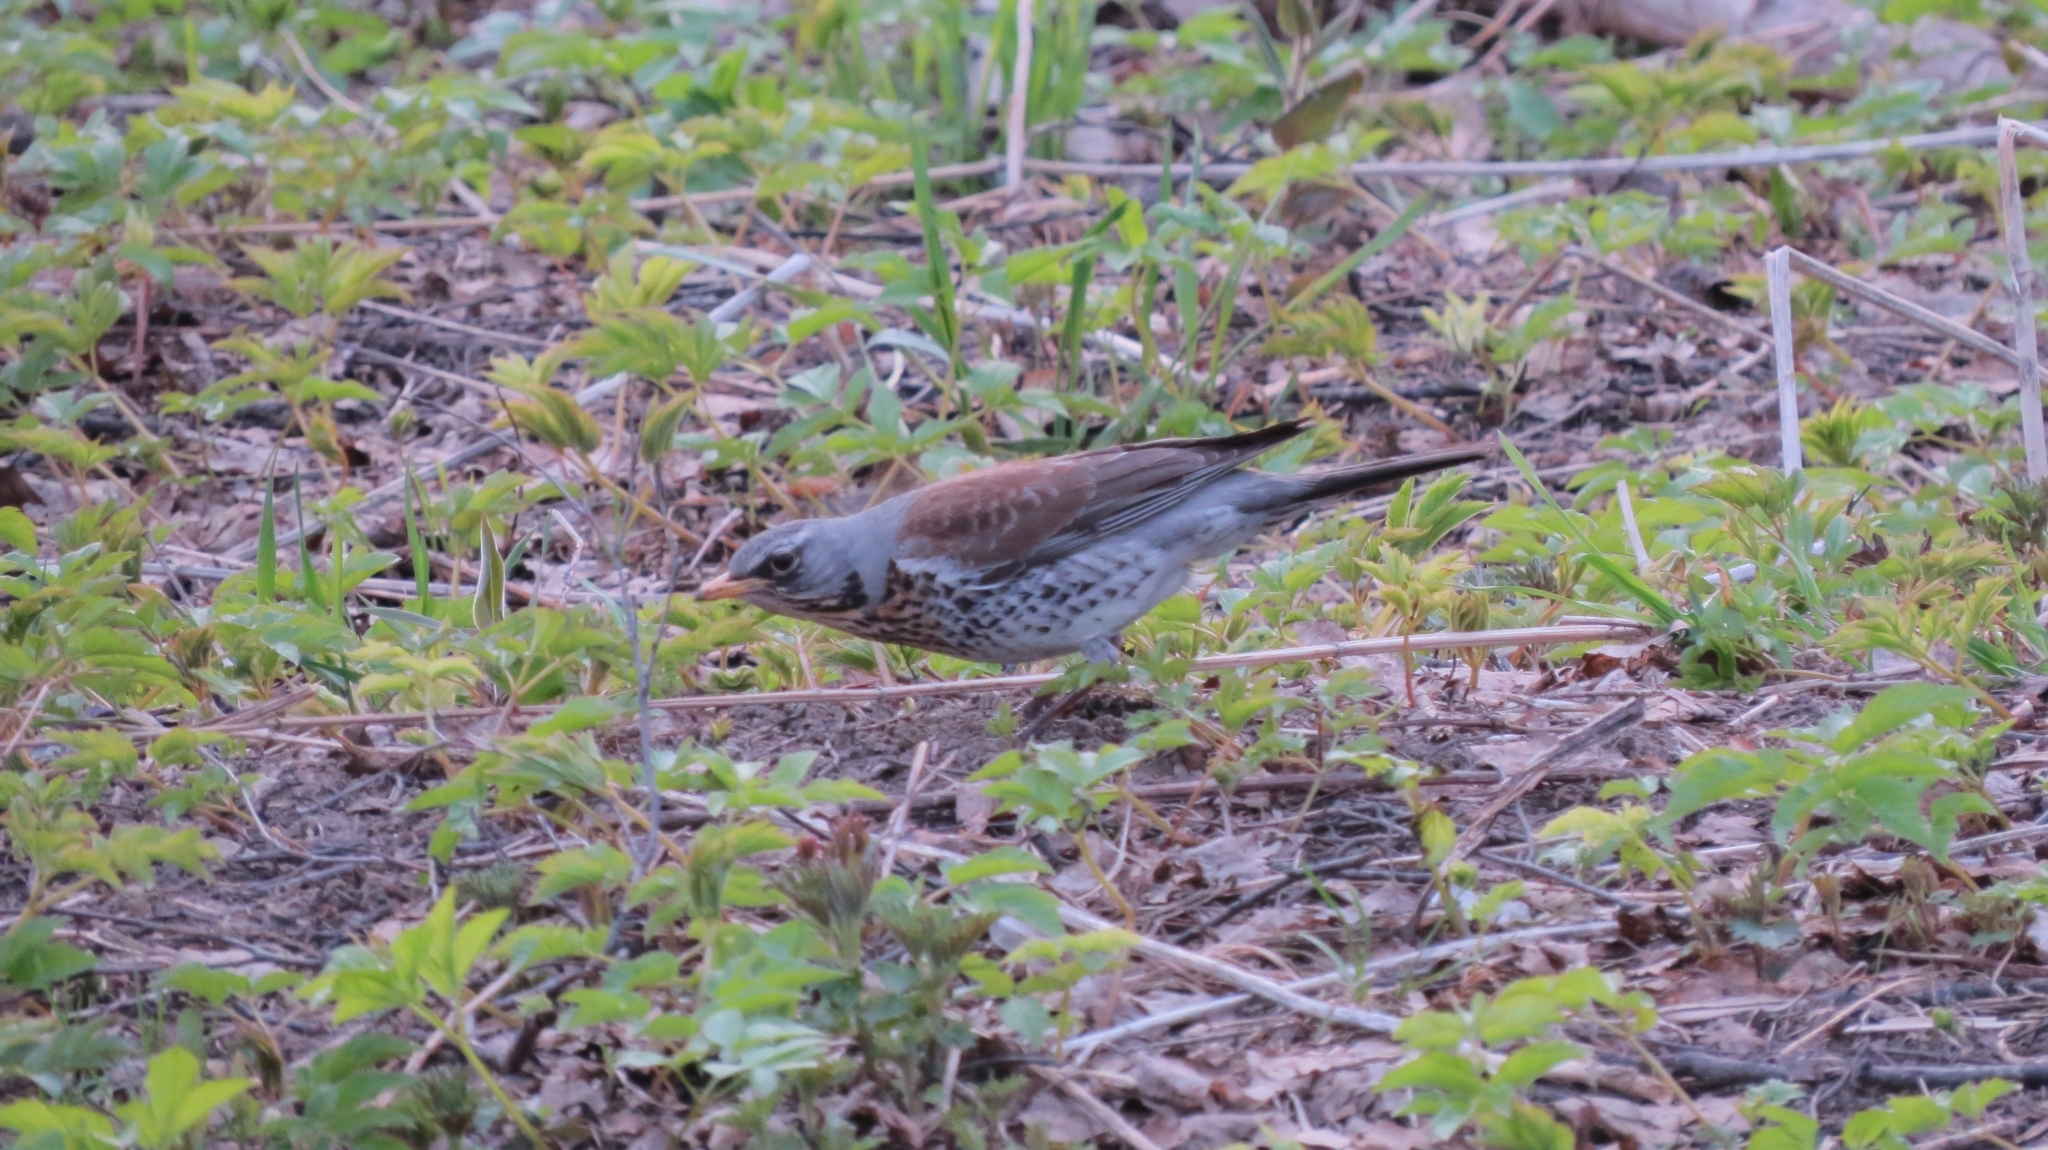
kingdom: Animalia
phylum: Chordata
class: Aves
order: Passeriformes
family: Turdidae
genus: Turdus
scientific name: Turdus pilaris
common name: Fieldfare
